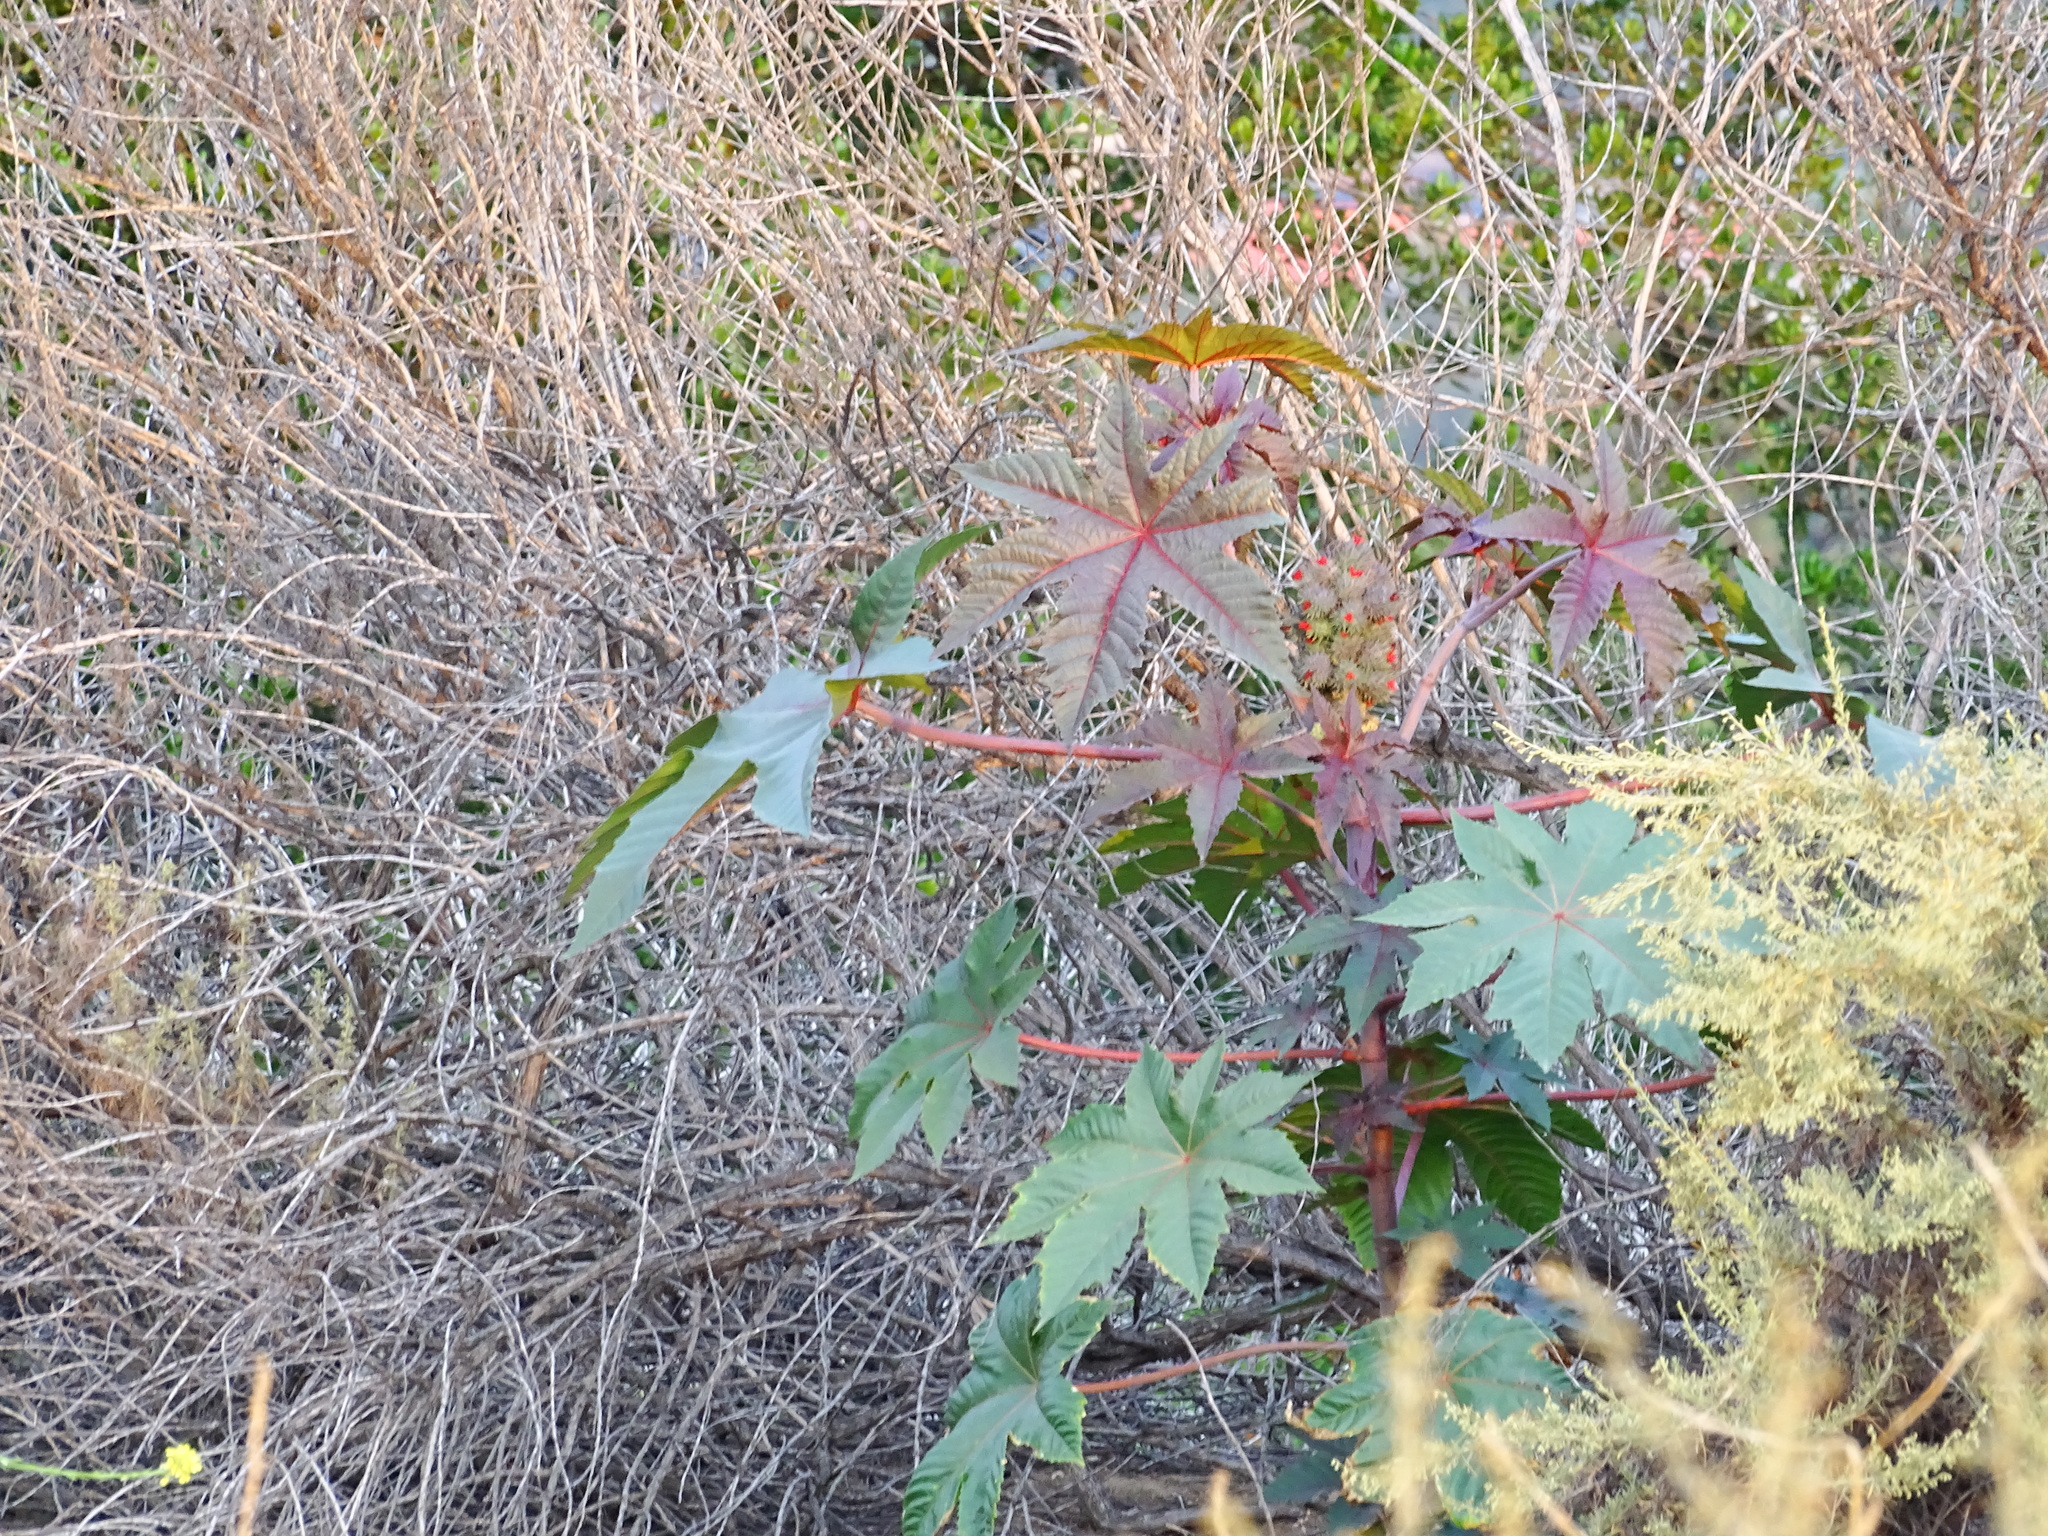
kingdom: Plantae
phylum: Tracheophyta
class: Magnoliopsida
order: Malpighiales
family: Euphorbiaceae
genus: Ricinus
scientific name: Ricinus communis
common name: Castor-oil-plant
